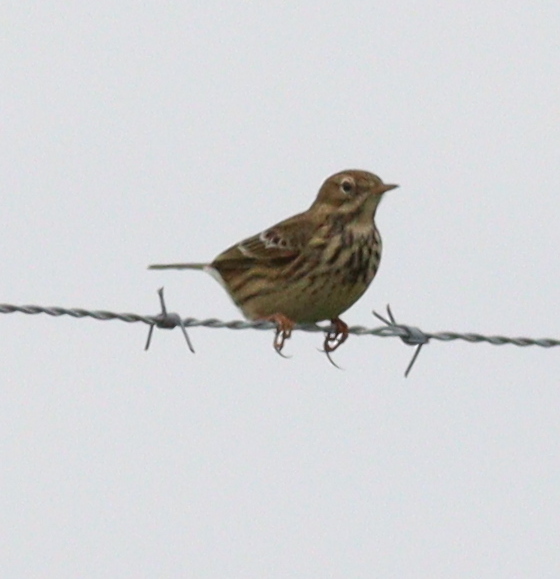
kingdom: Animalia
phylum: Chordata
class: Aves
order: Passeriformes
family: Motacillidae
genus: Anthus
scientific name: Anthus pratensis
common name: Meadow pipit
